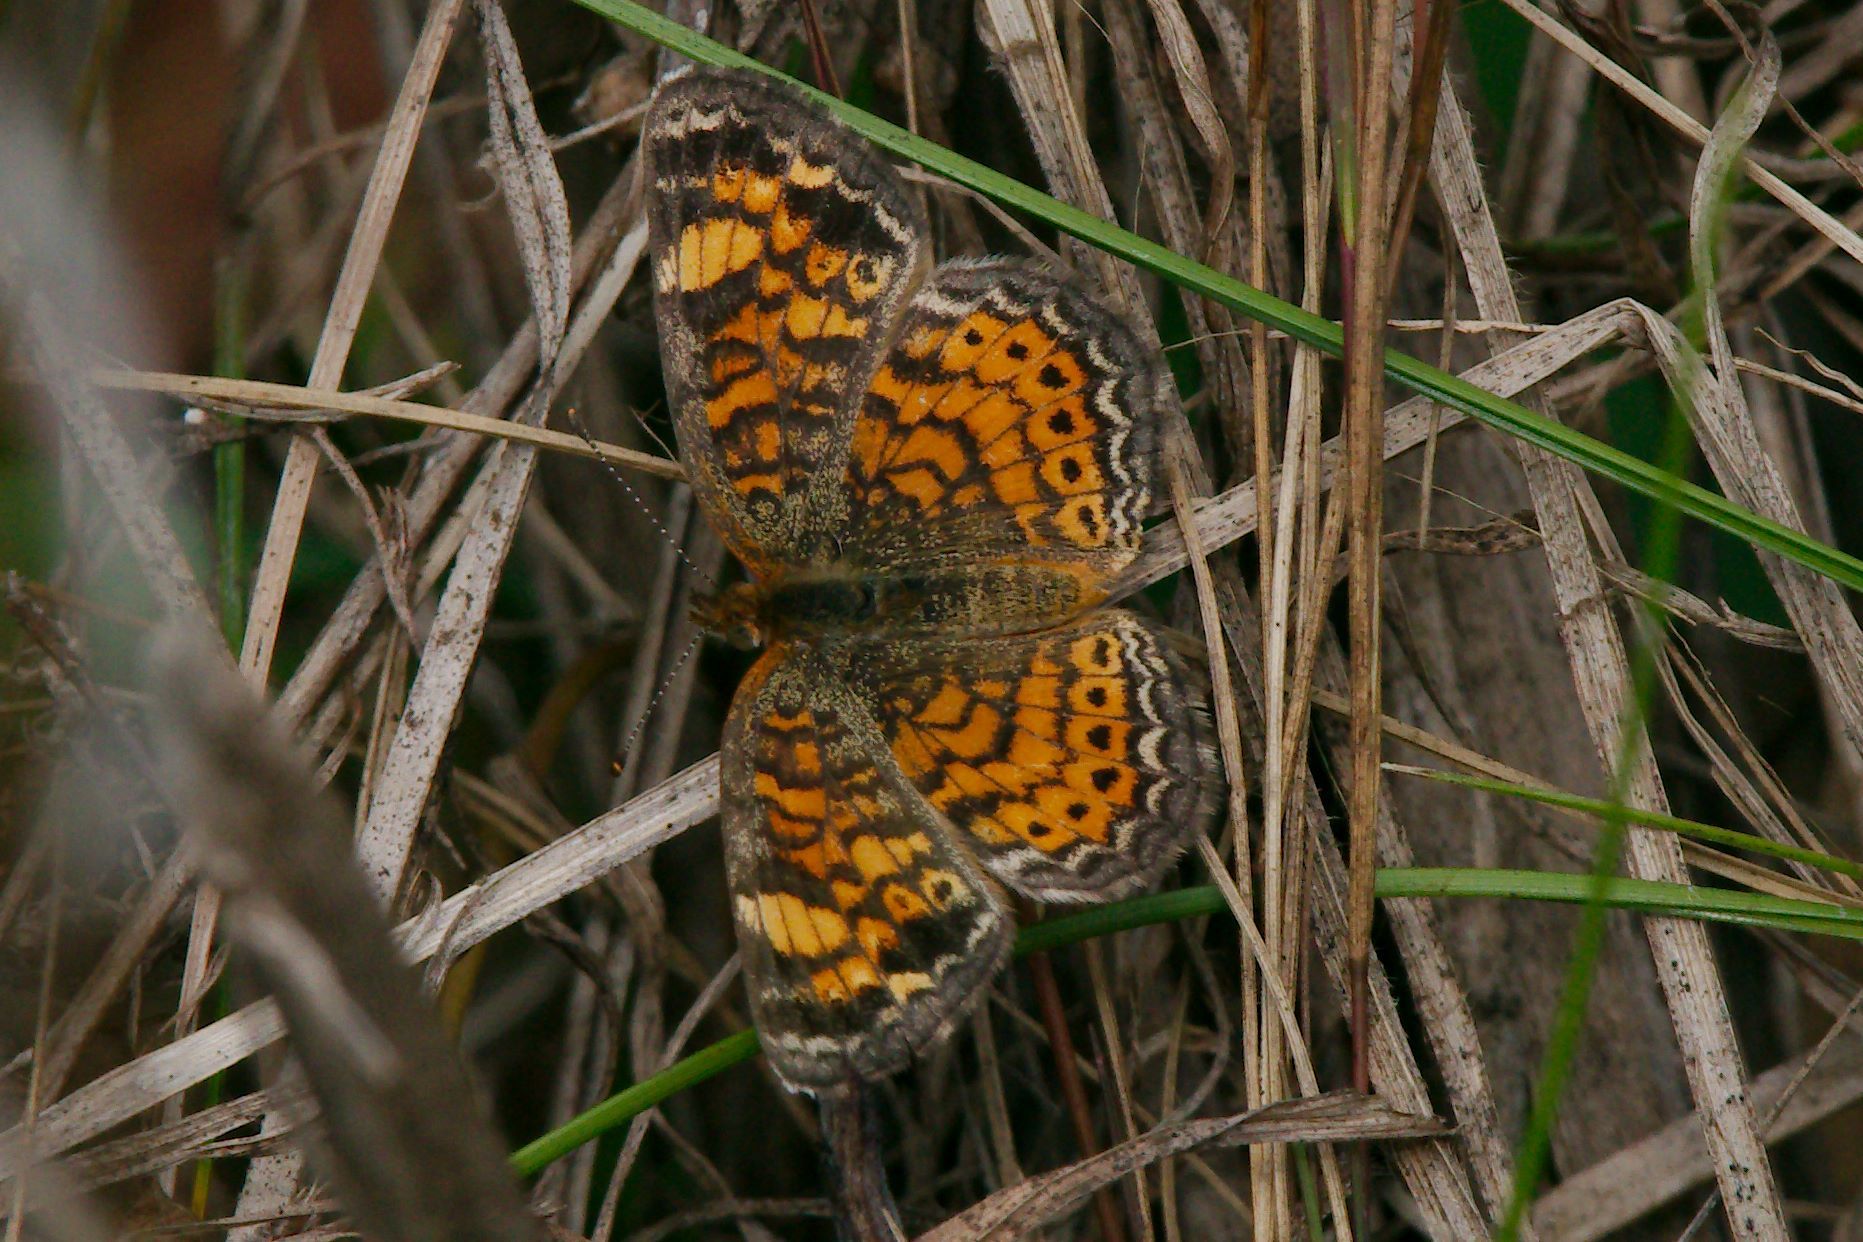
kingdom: Animalia
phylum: Arthropoda
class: Insecta
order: Lepidoptera
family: Nymphalidae
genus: Phyciodes
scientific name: Phyciodes tharos
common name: Pearl crescent
